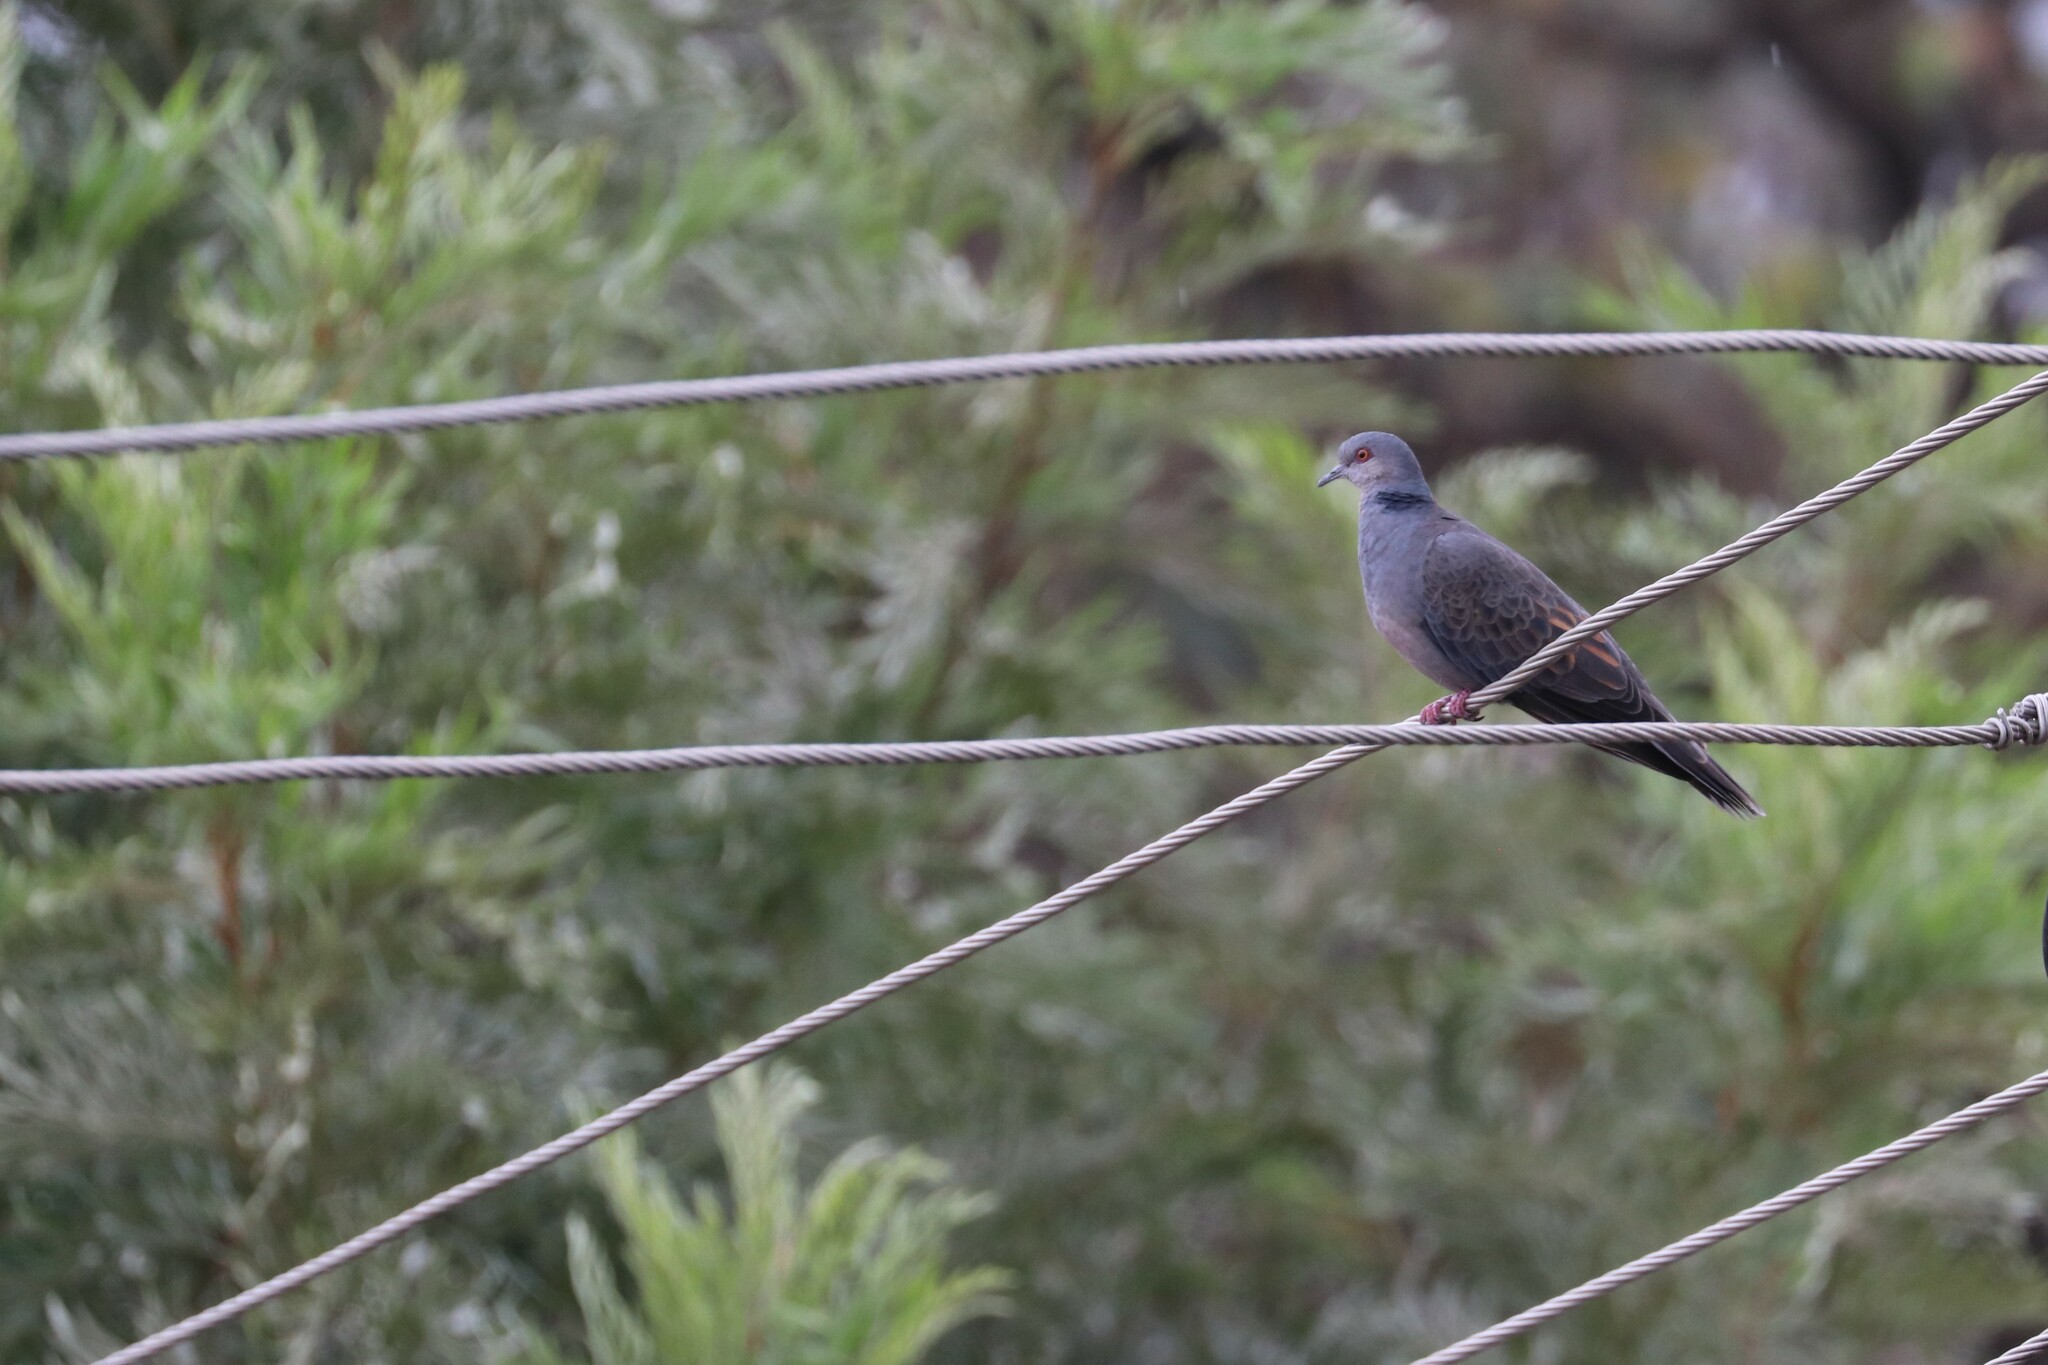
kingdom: Animalia
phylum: Chordata
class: Aves
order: Columbiformes
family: Columbidae
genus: Streptopelia
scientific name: Streptopelia lugens
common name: Dusky turtle dove
